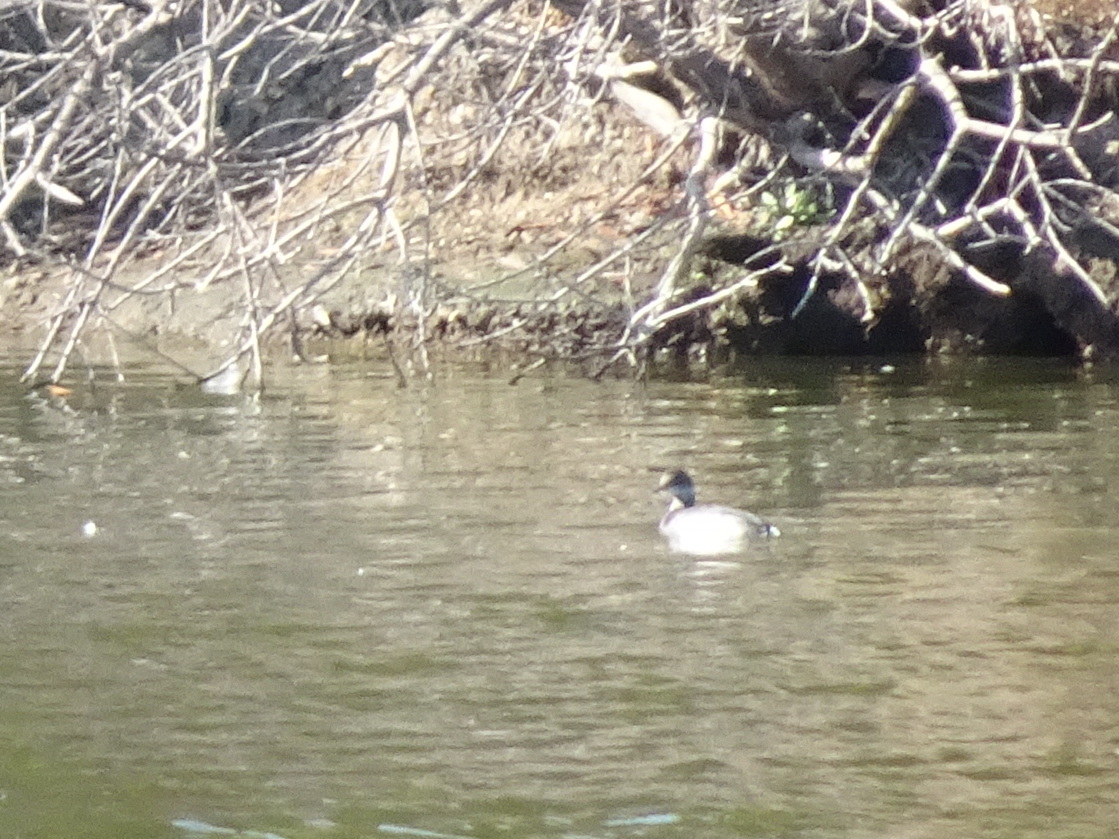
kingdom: Animalia
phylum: Chordata
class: Aves
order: Podicipediformes
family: Podicipedidae
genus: Podiceps
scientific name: Podiceps auritus
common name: Horned grebe
